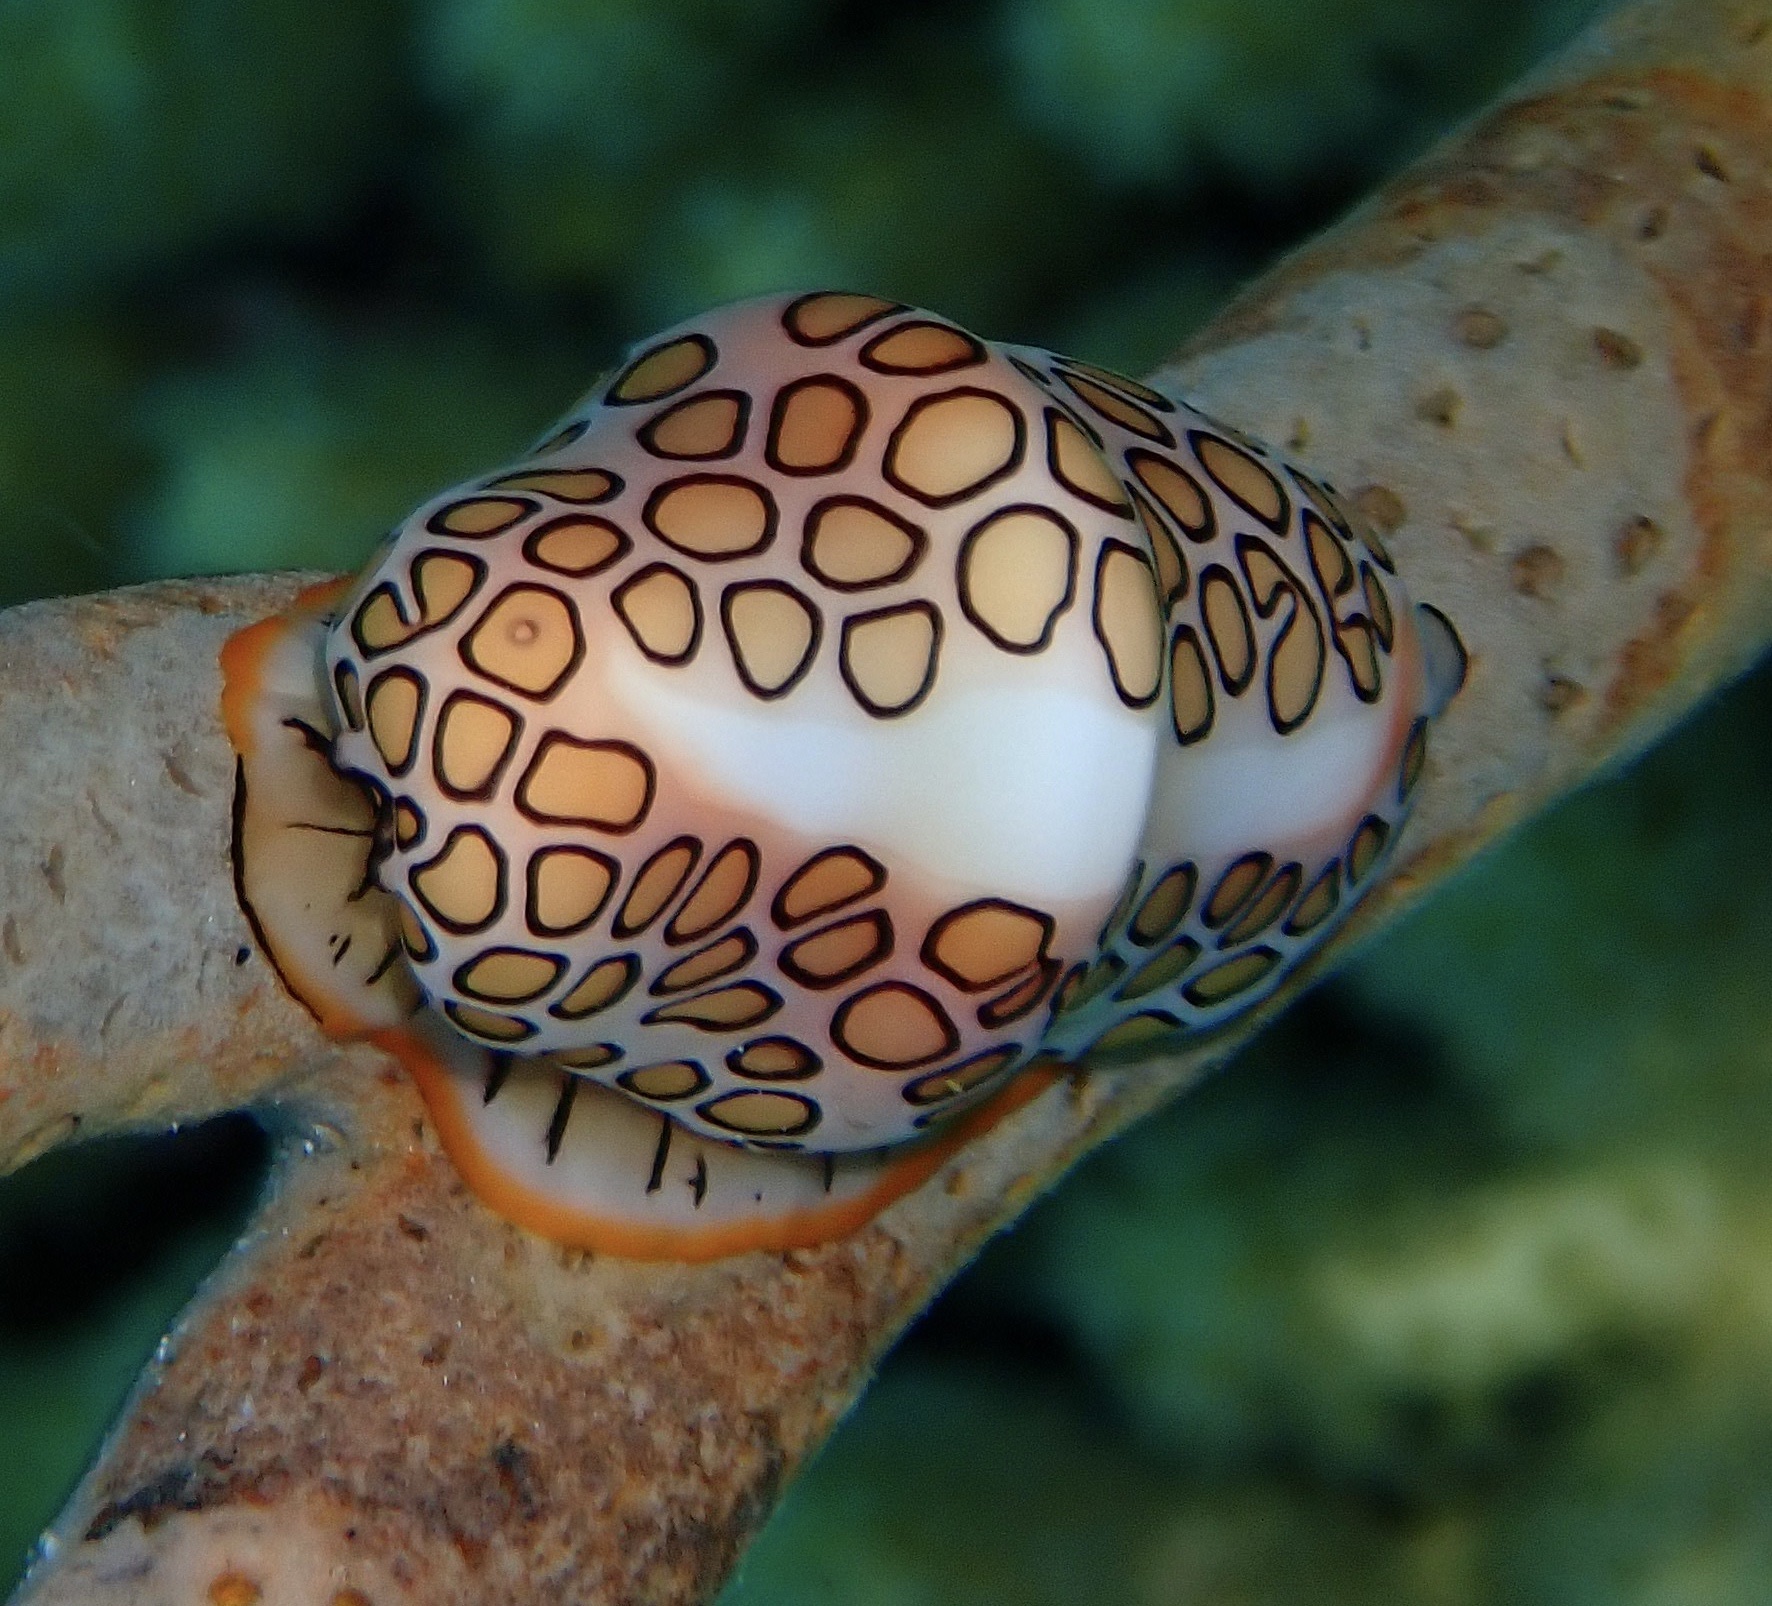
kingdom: Animalia
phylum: Mollusca
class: Gastropoda
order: Littorinimorpha
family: Ovulidae
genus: Cyphoma
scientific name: Cyphoma gibbosum
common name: Flamingo tongue
